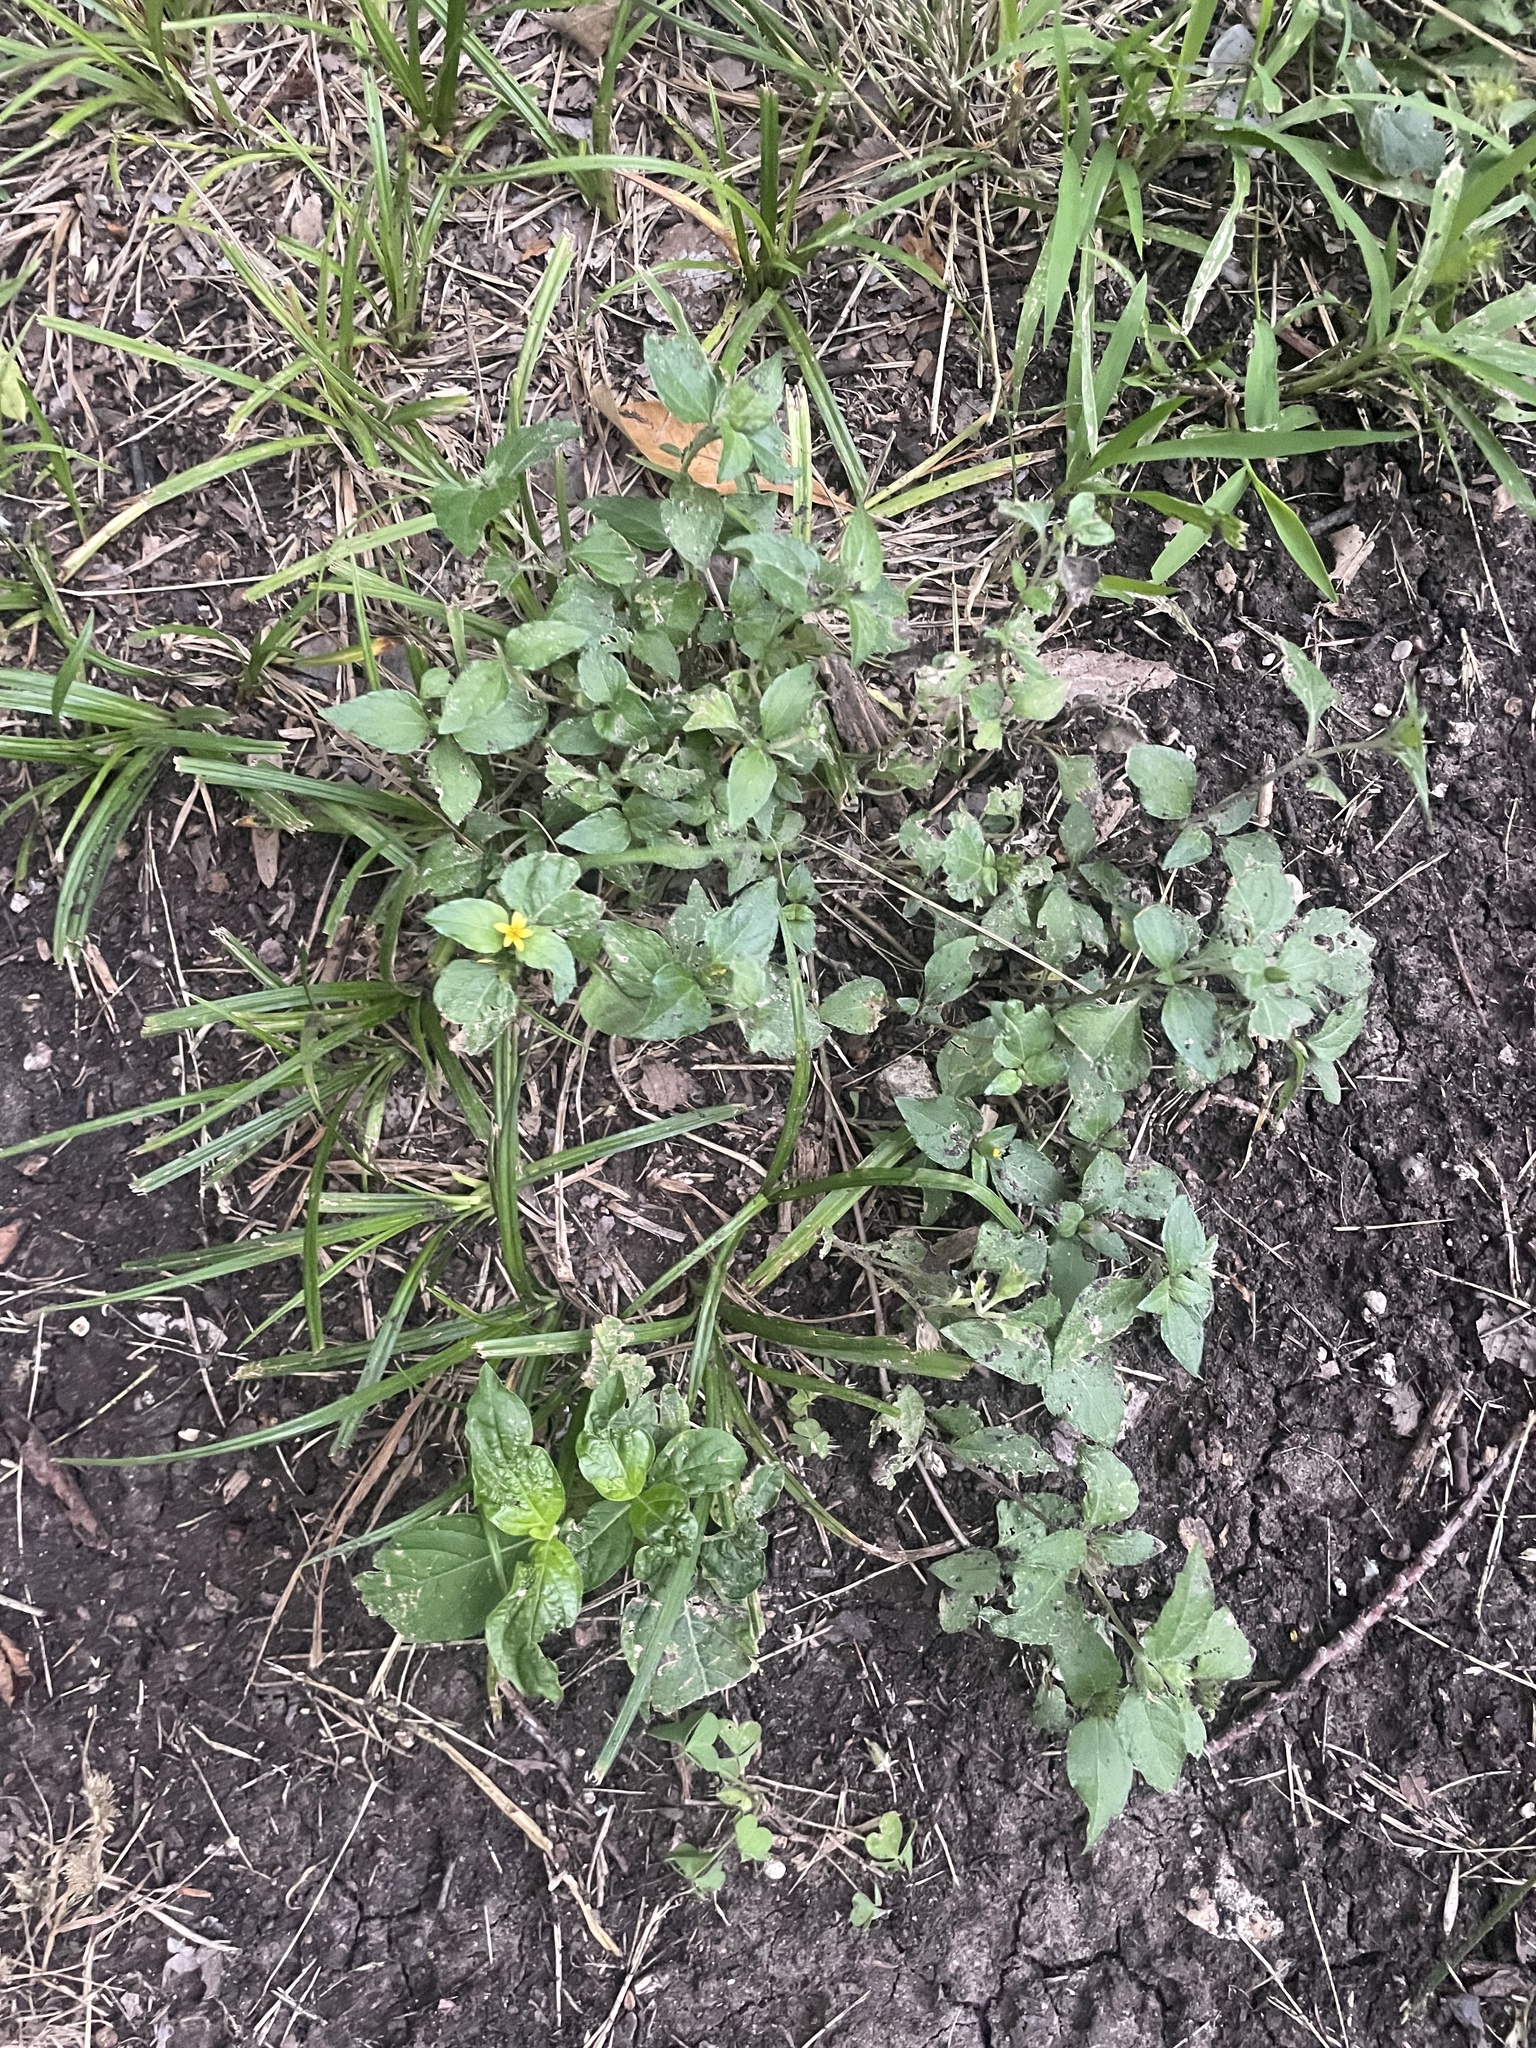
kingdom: Plantae
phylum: Tracheophyta
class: Magnoliopsida
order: Asterales
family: Asteraceae
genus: Calyptocarpus
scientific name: Calyptocarpus vialis
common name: Straggler daisy
